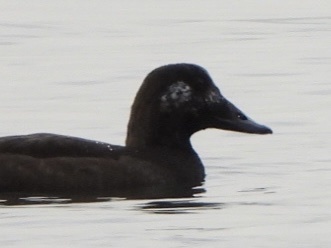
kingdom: Animalia
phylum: Chordata
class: Aves
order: Anseriformes
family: Anatidae
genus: Melanitta
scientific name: Melanitta deglandi
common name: White-winged scoter
